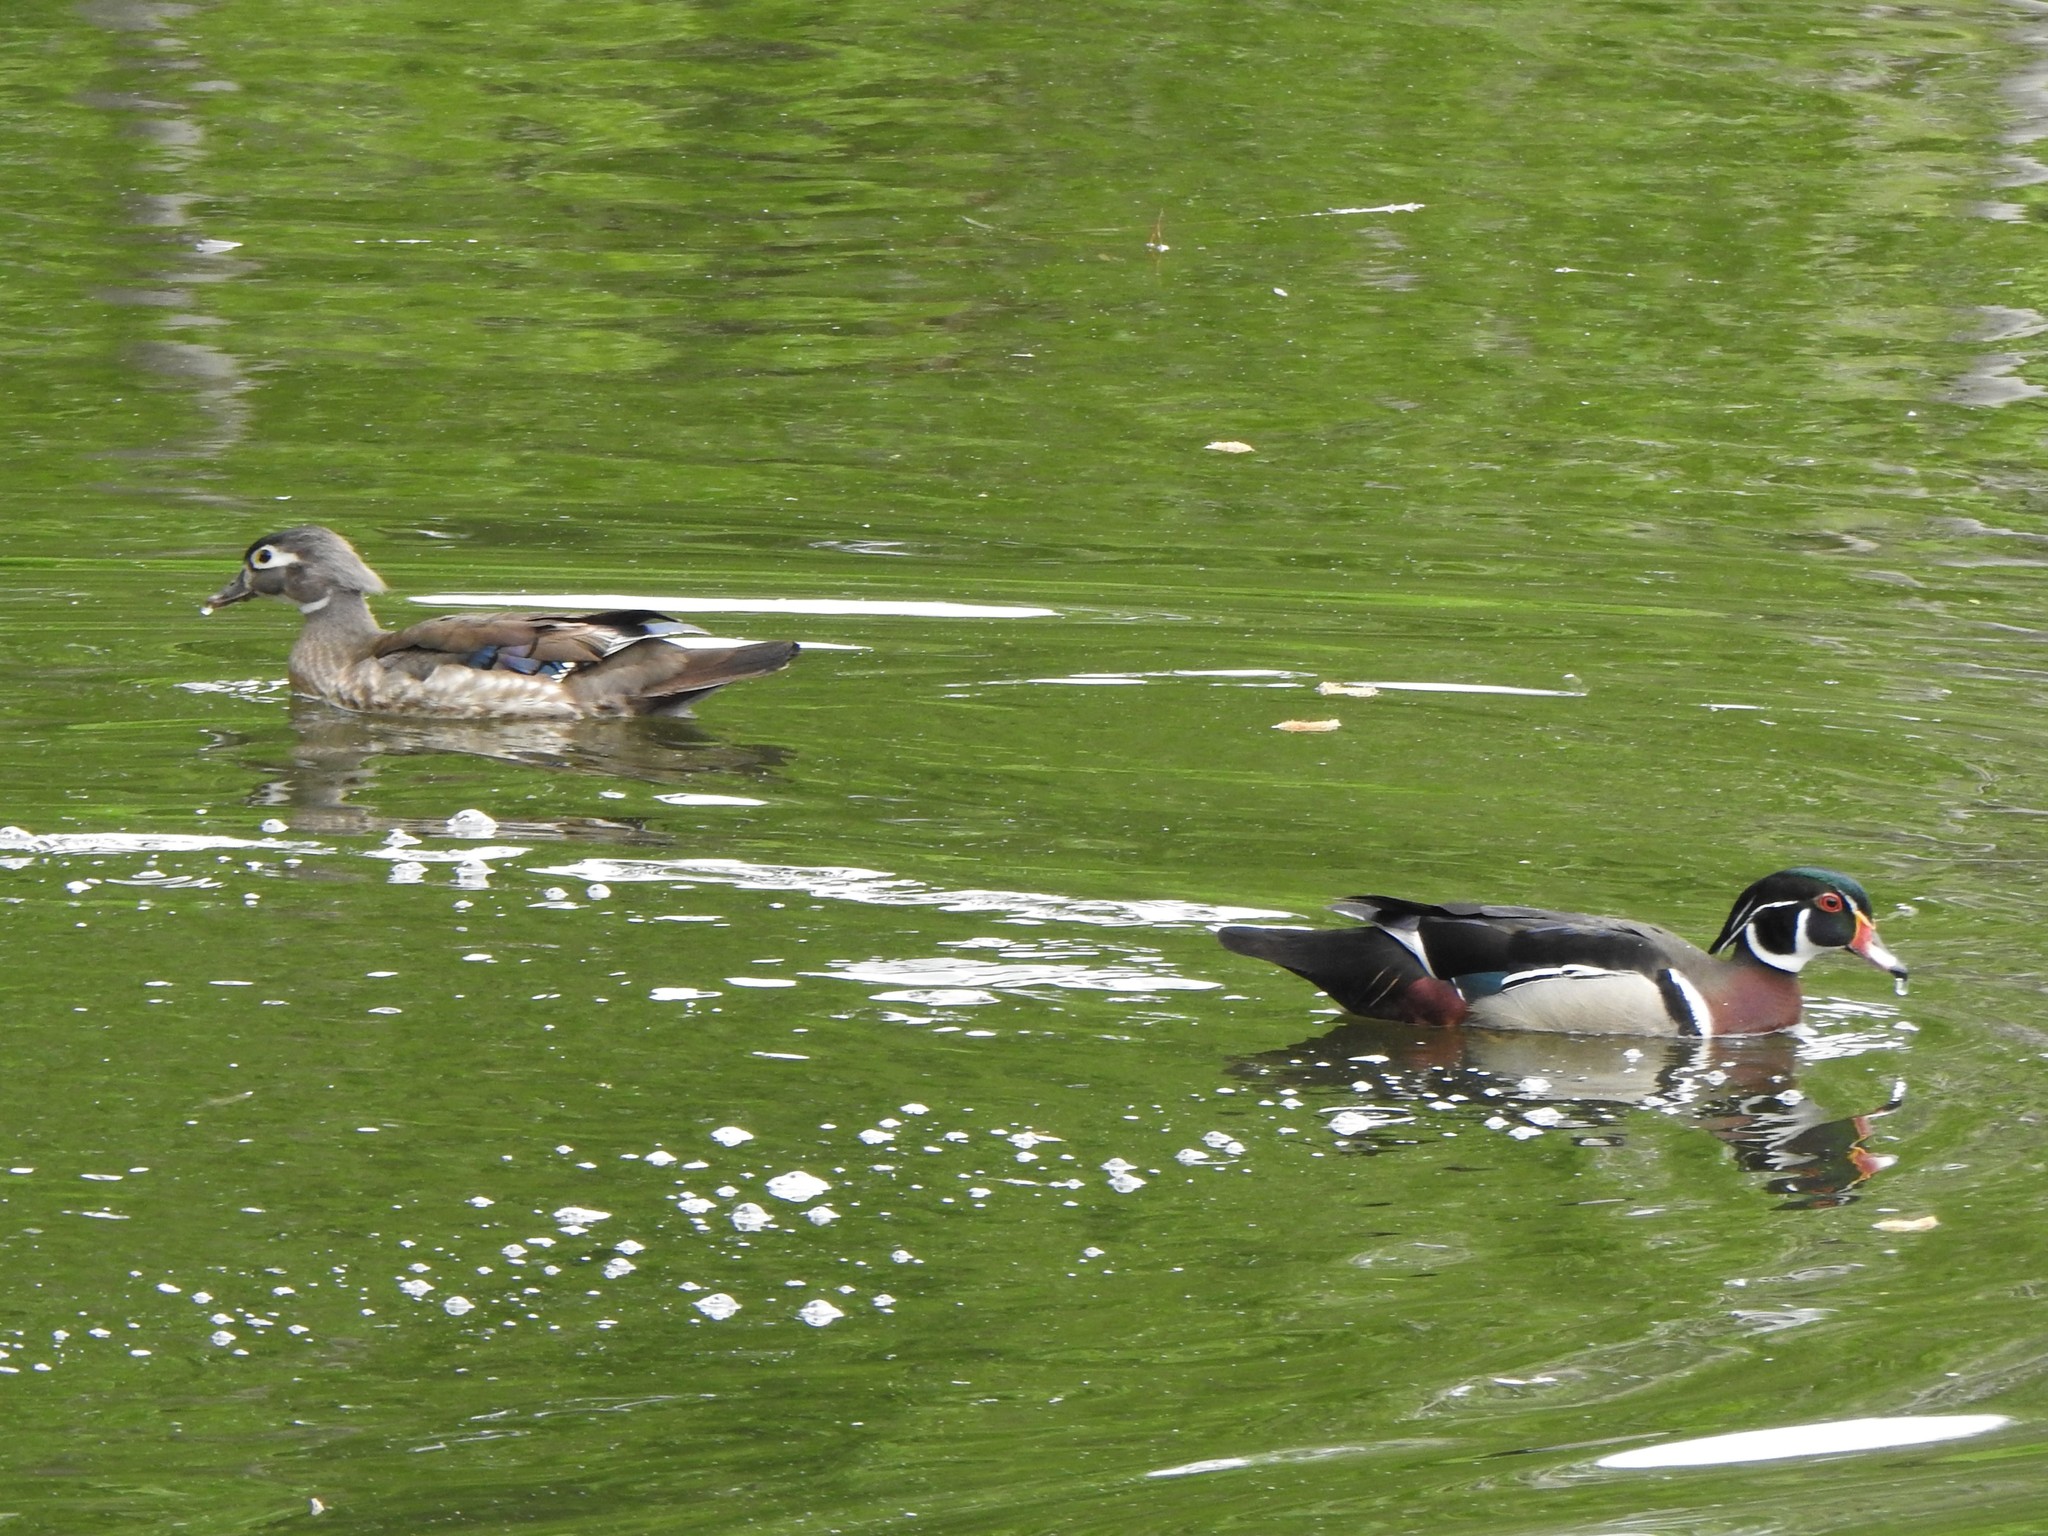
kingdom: Animalia
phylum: Chordata
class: Aves
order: Anseriformes
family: Anatidae
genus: Aix
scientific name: Aix sponsa
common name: Wood duck
